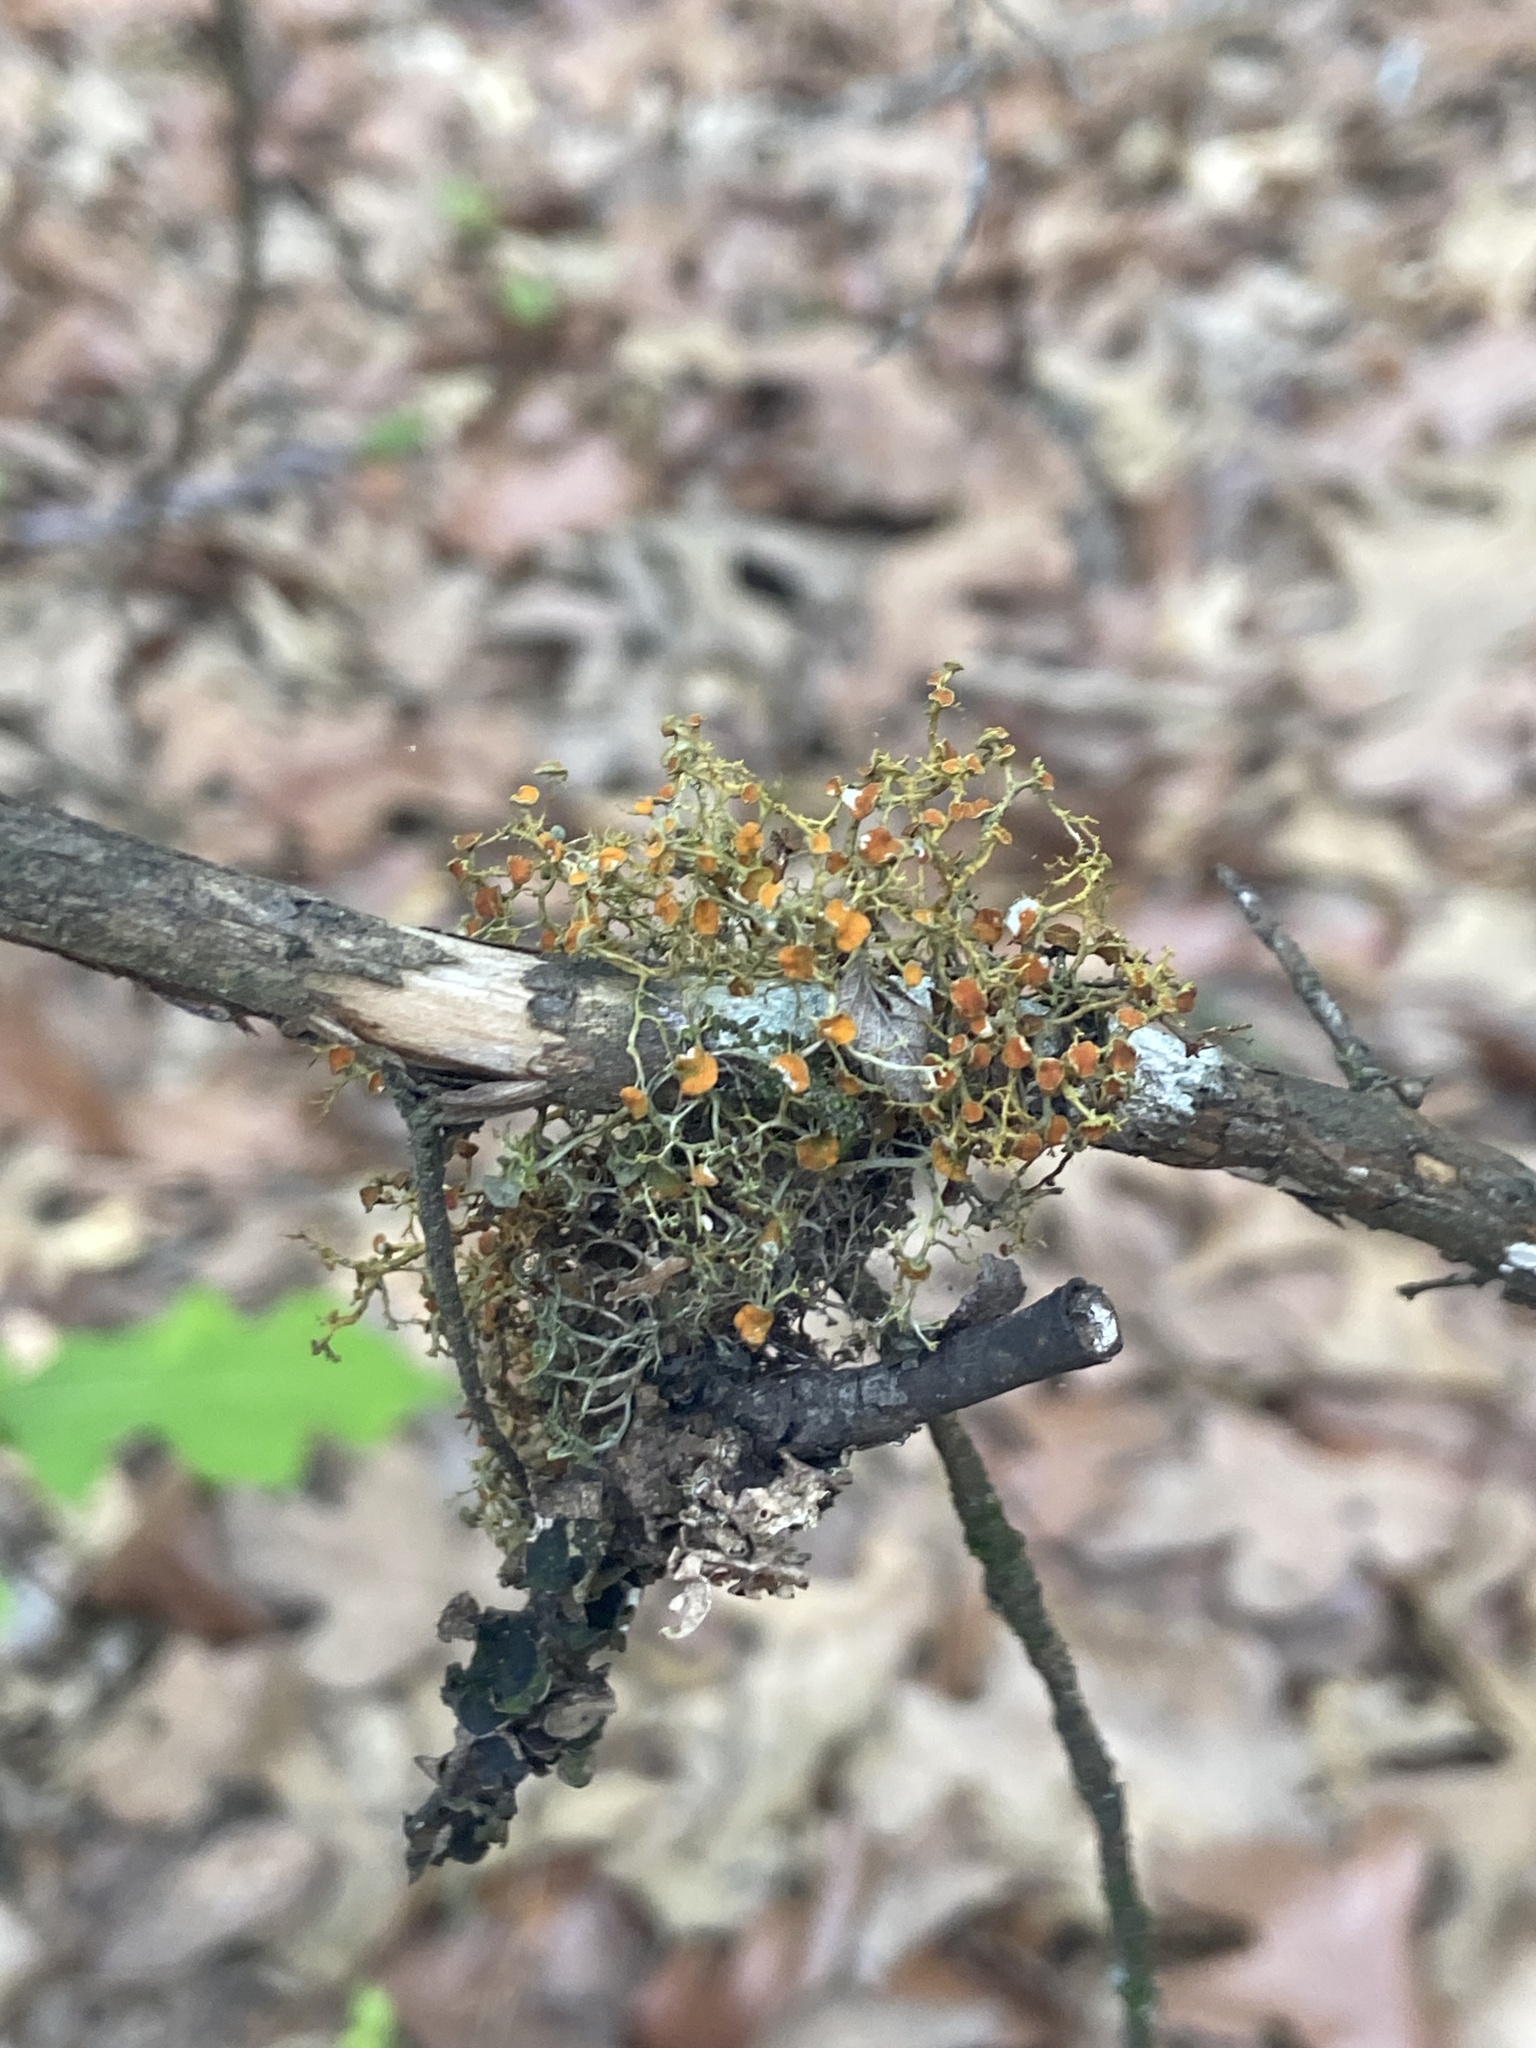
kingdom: Fungi
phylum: Ascomycota
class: Lecanoromycetes
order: Teloschistales
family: Teloschistaceae
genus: Teloschistes
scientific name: Teloschistes exilis
